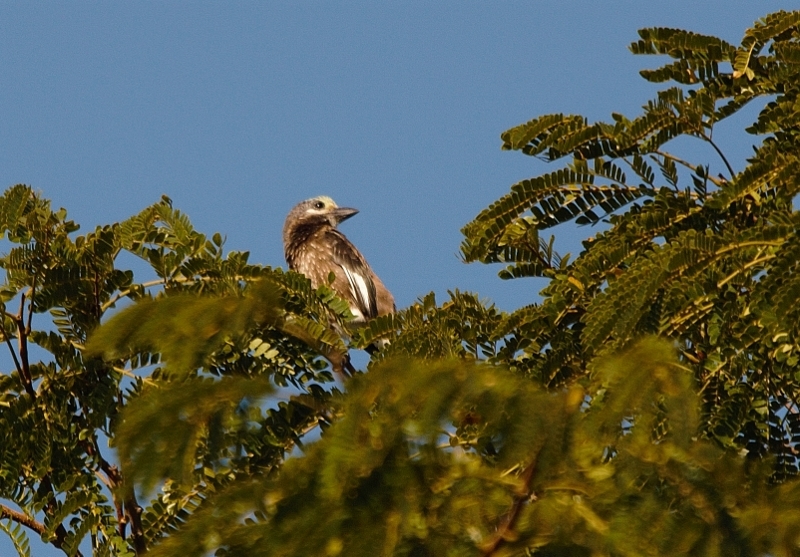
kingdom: Animalia
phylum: Chordata
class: Aves
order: Piciformes
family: Lybiidae
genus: Stactolaema
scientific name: Stactolaema whytii
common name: Whyte's barbet
